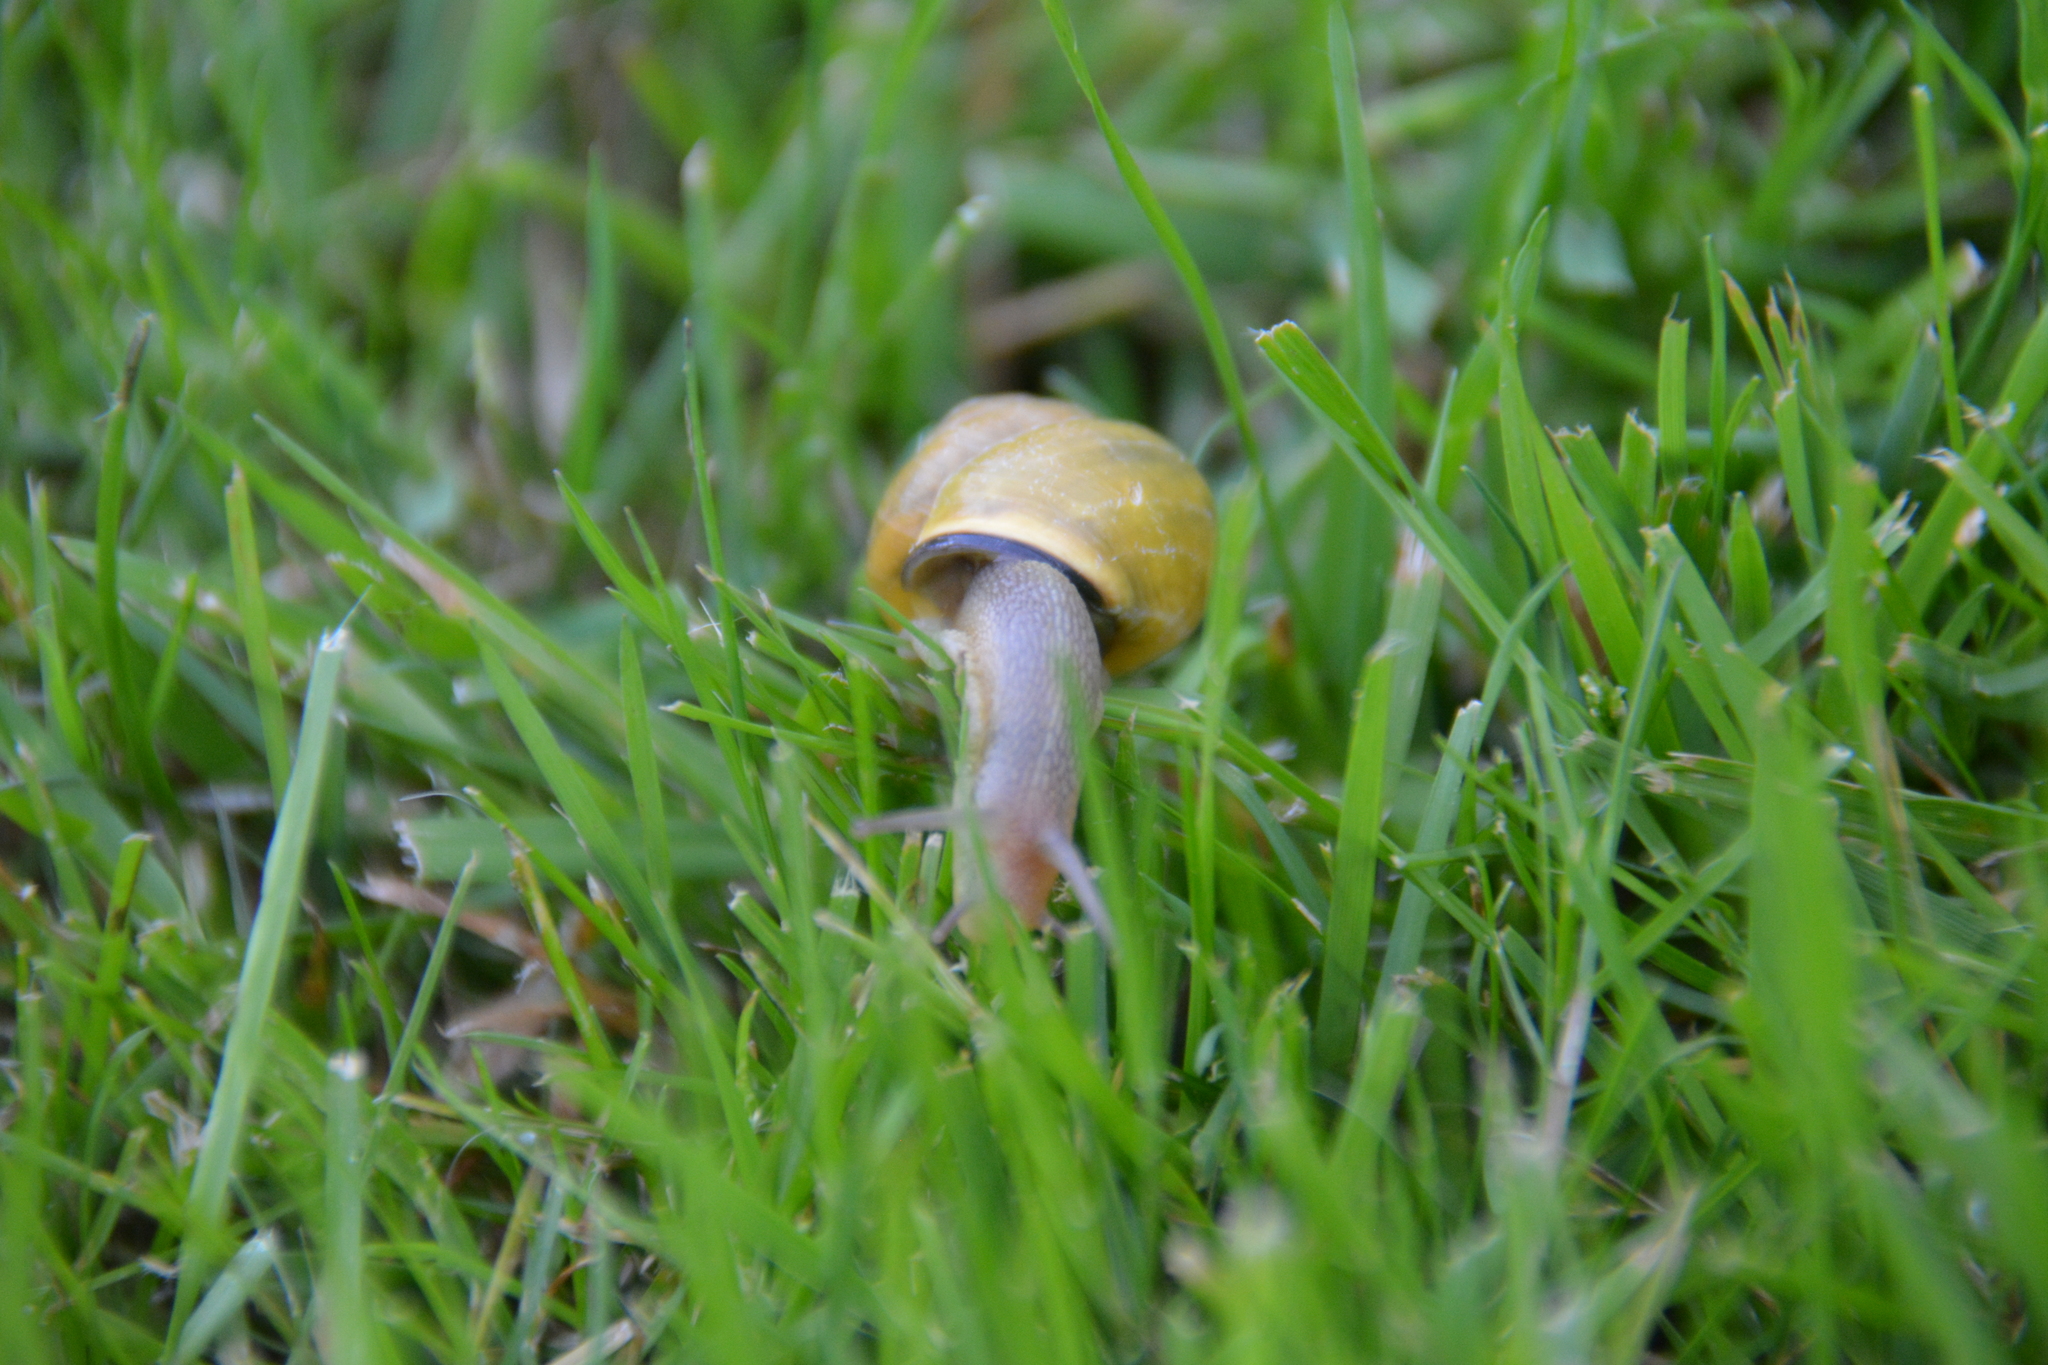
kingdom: Animalia
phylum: Mollusca
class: Gastropoda
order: Stylommatophora
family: Helicidae
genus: Cepaea
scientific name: Cepaea nemoralis
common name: Grovesnail
